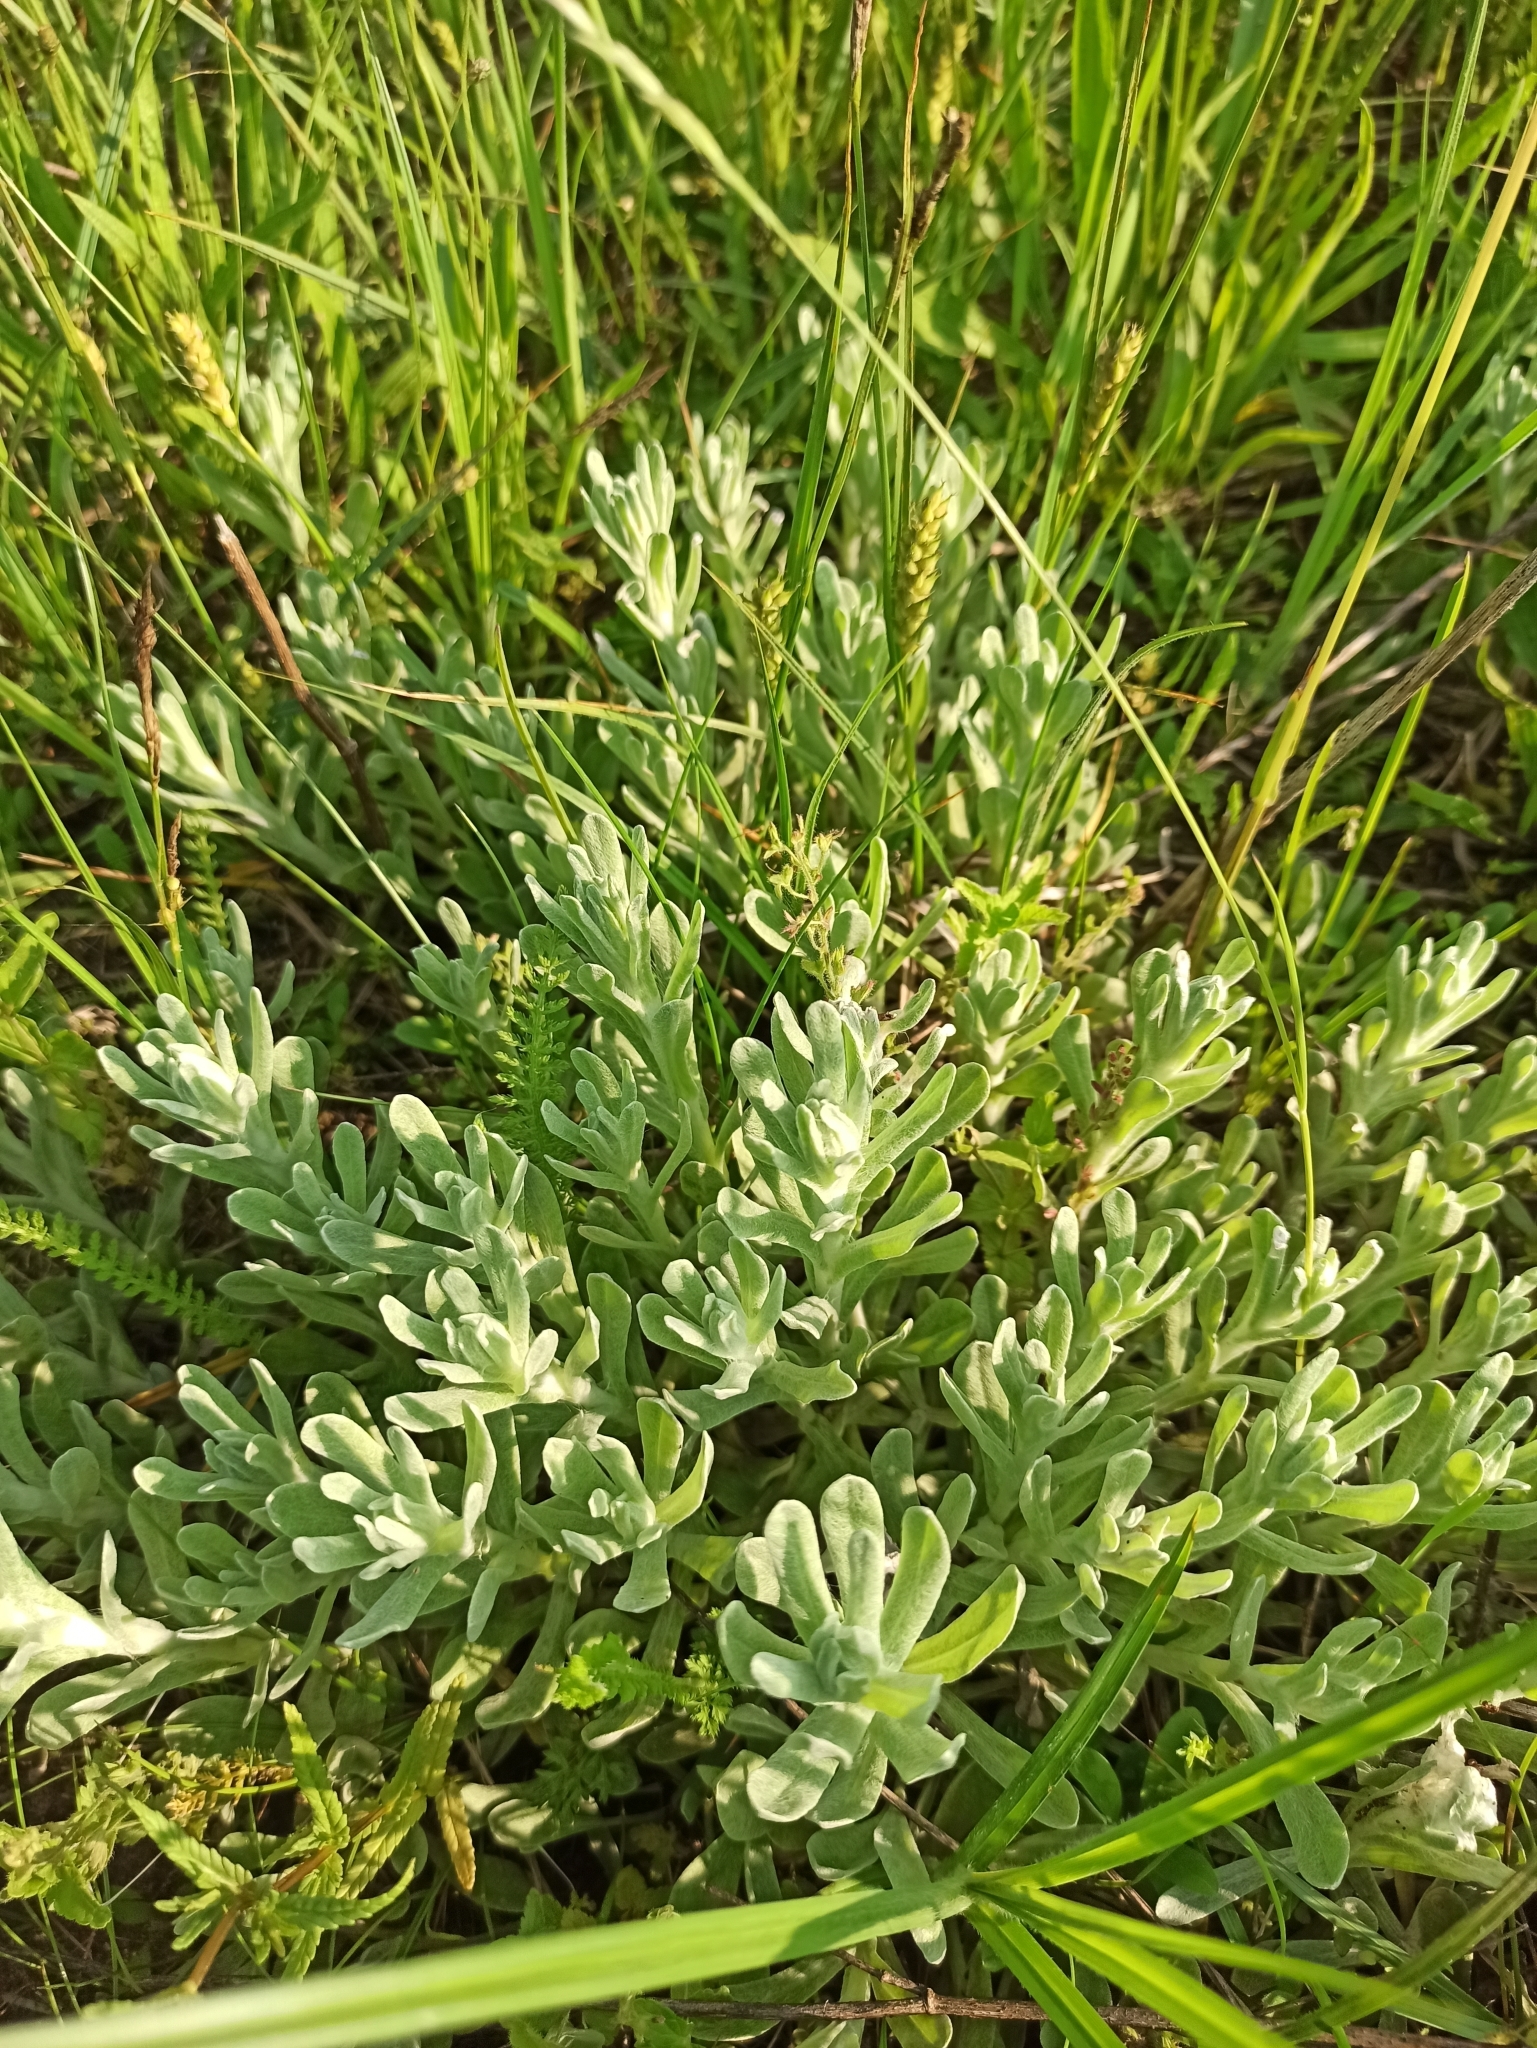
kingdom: Plantae
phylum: Tracheophyta
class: Magnoliopsida
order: Asterales
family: Asteraceae
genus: Helichrysum
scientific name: Helichrysum arenarium
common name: Strawflower
